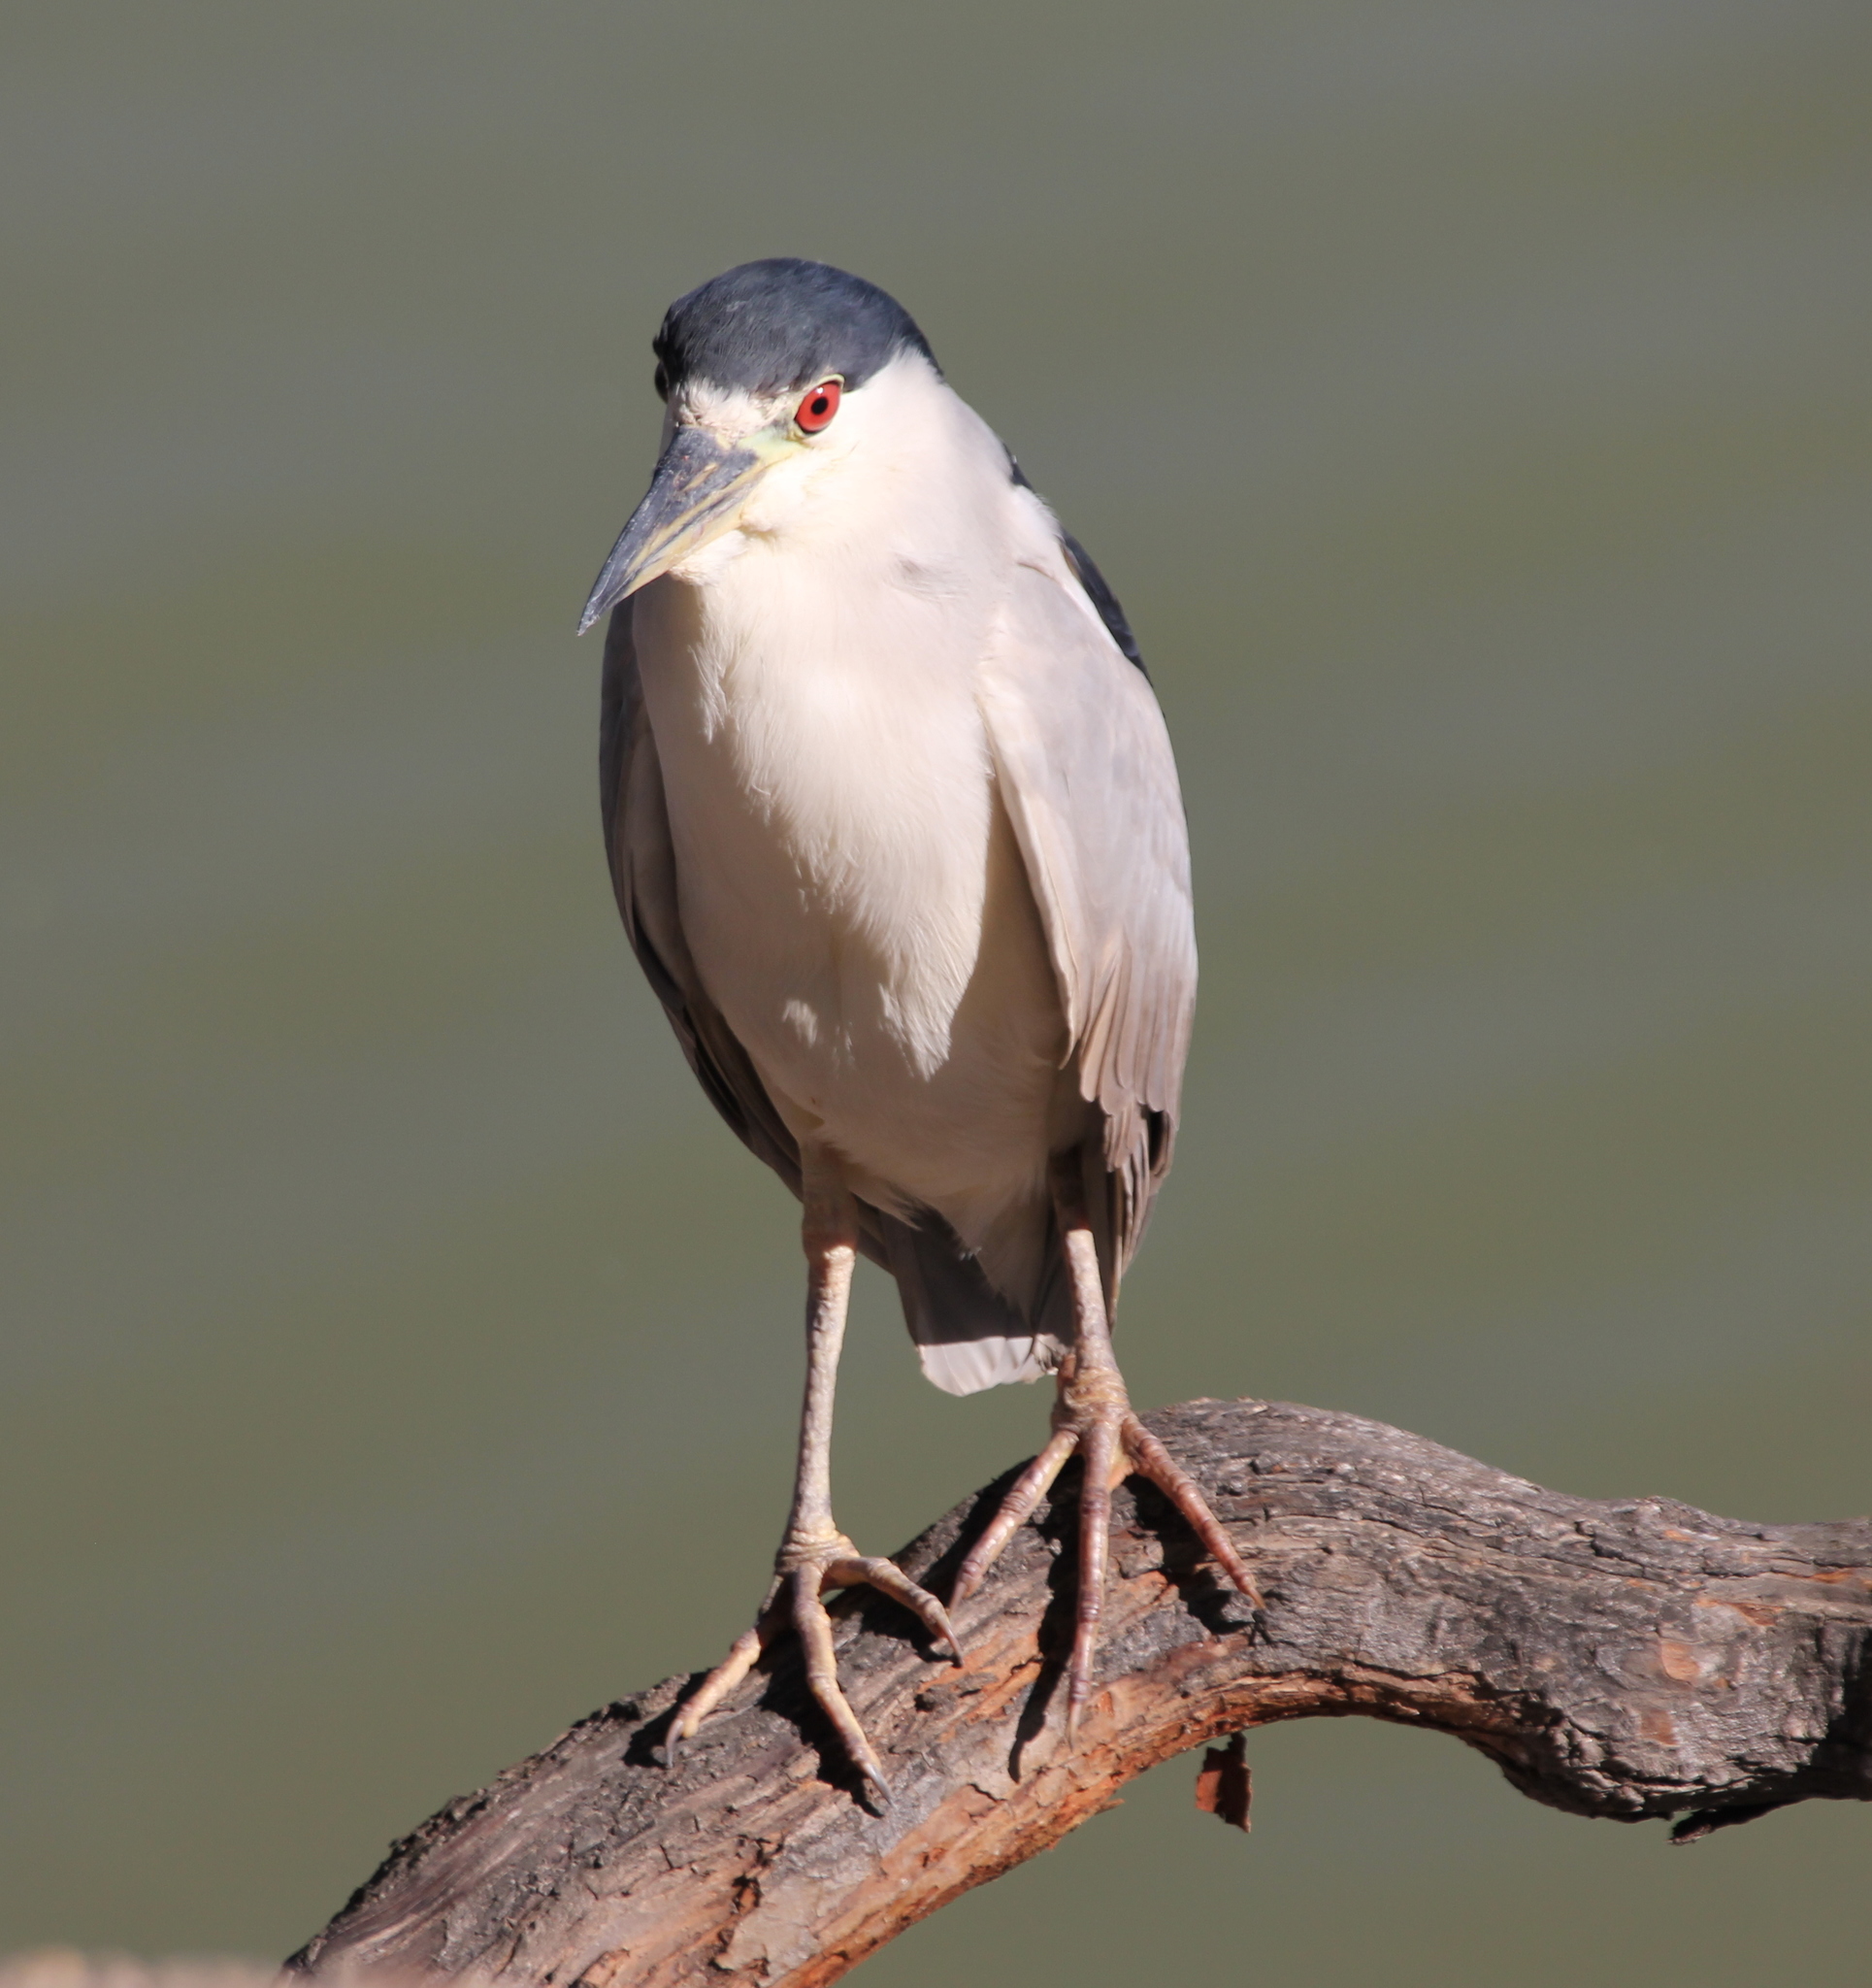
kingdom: Animalia
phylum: Chordata
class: Aves
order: Pelecaniformes
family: Ardeidae
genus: Nycticorax
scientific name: Nycticorax nycticorax
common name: Black-crowned night heron
